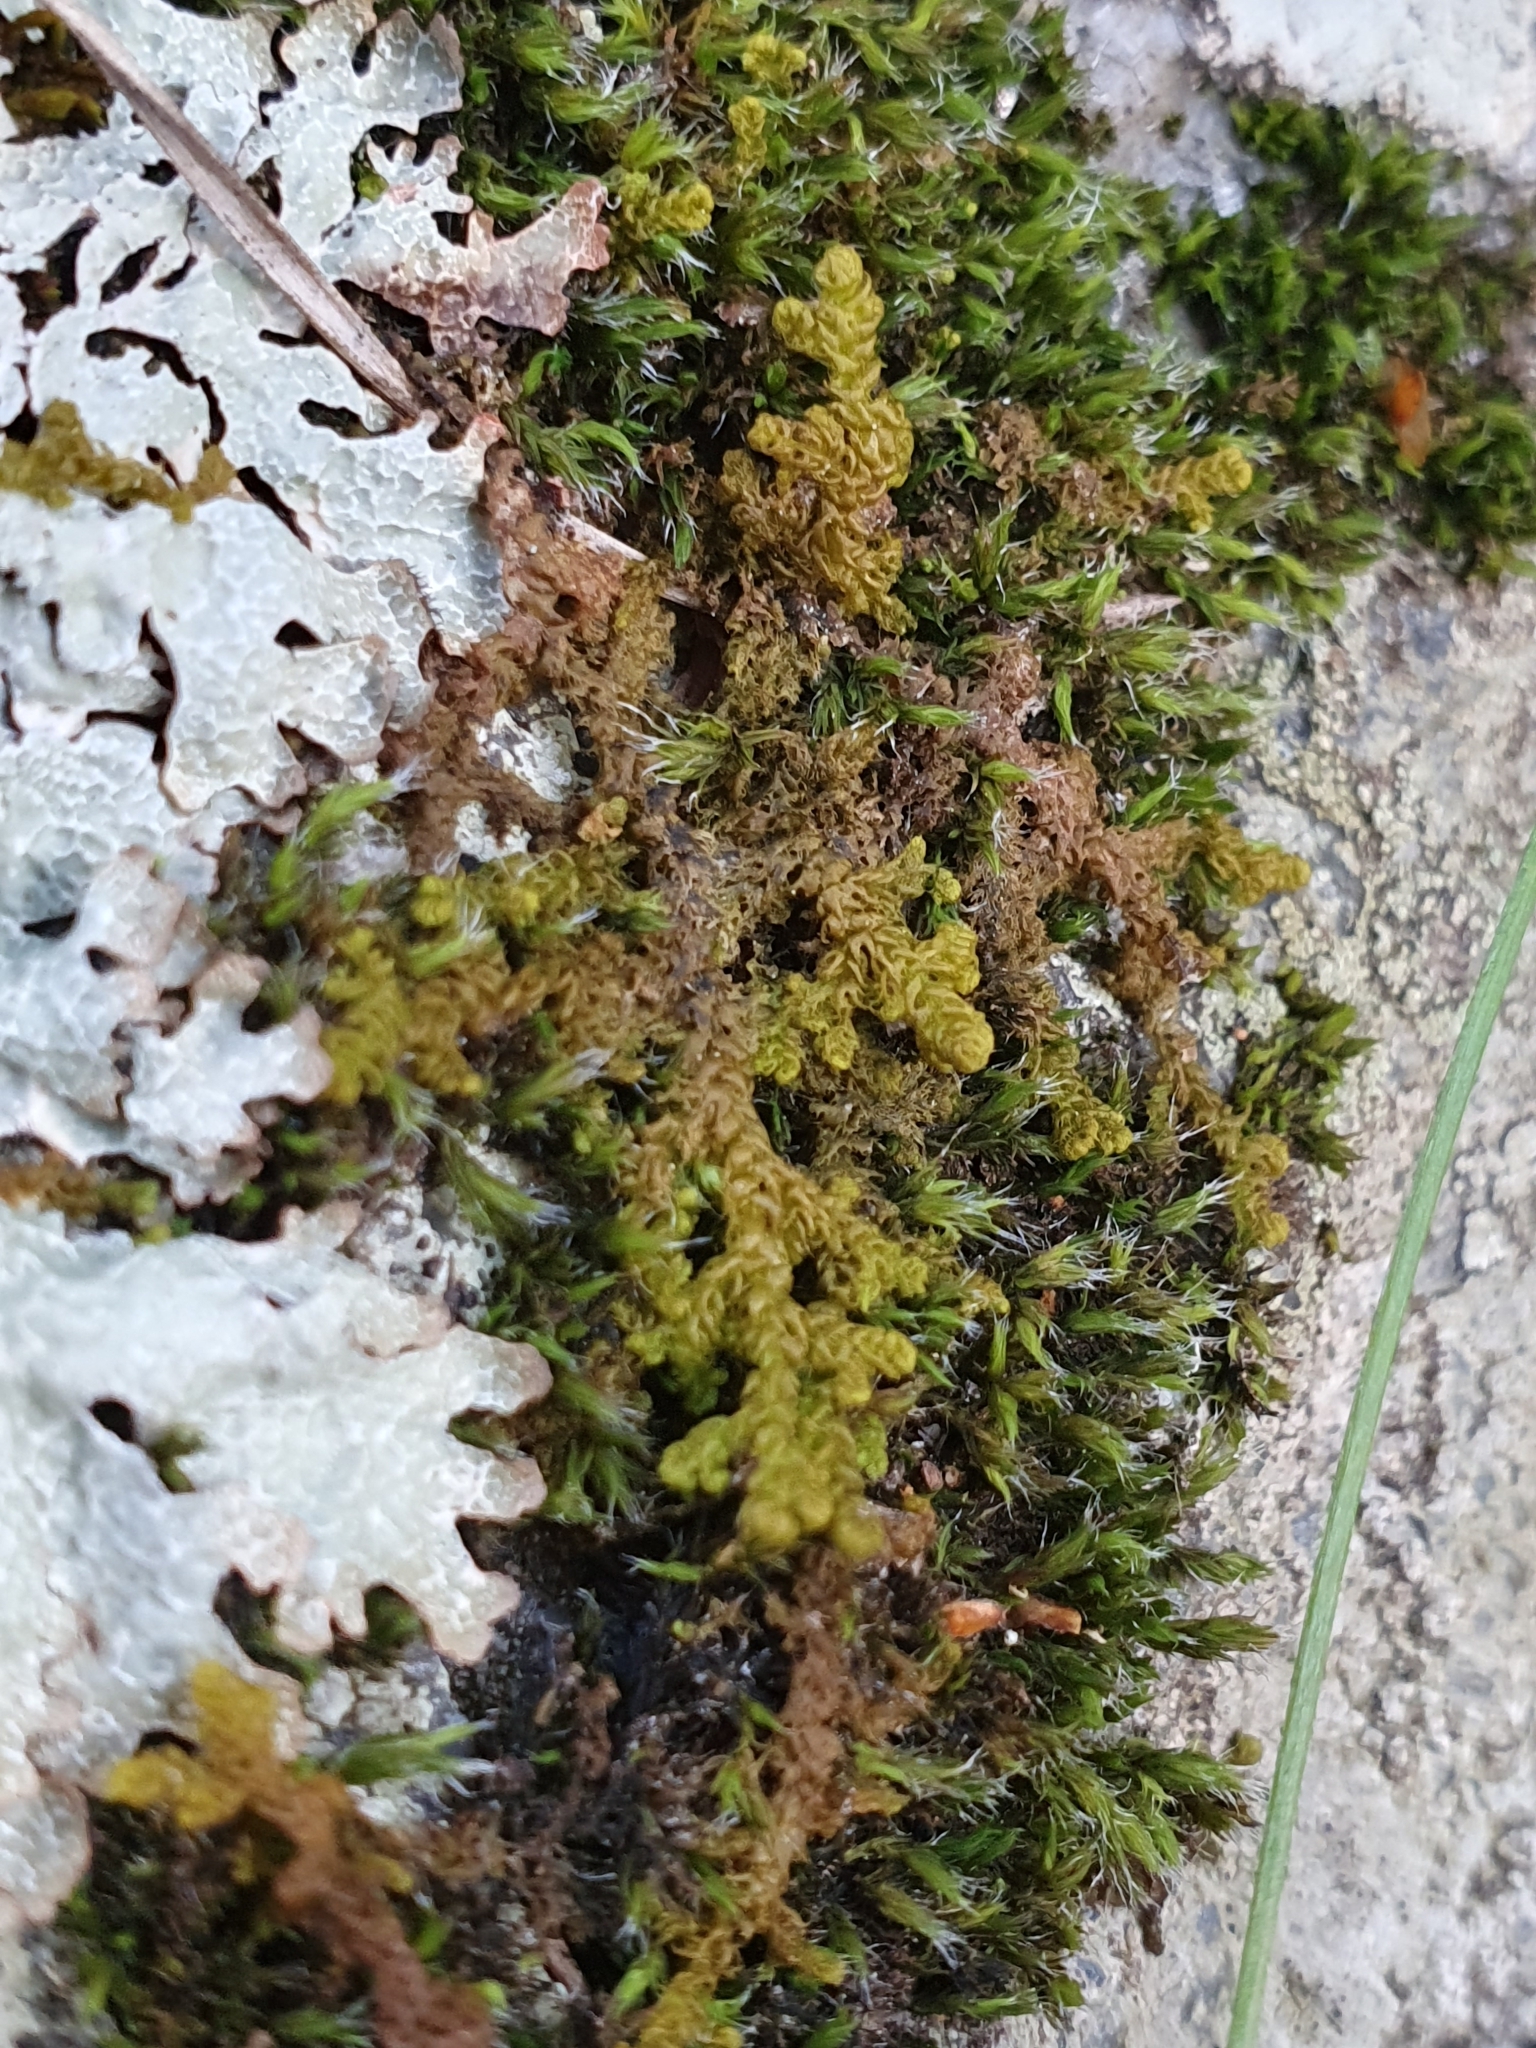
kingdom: Plantae
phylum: Marchantiophyta
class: Jungermanniopsida
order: Ptilidiales
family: Ptilidiaceae
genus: Ptilidium
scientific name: Ptilidium ciliare
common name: Ciliate fringewort
